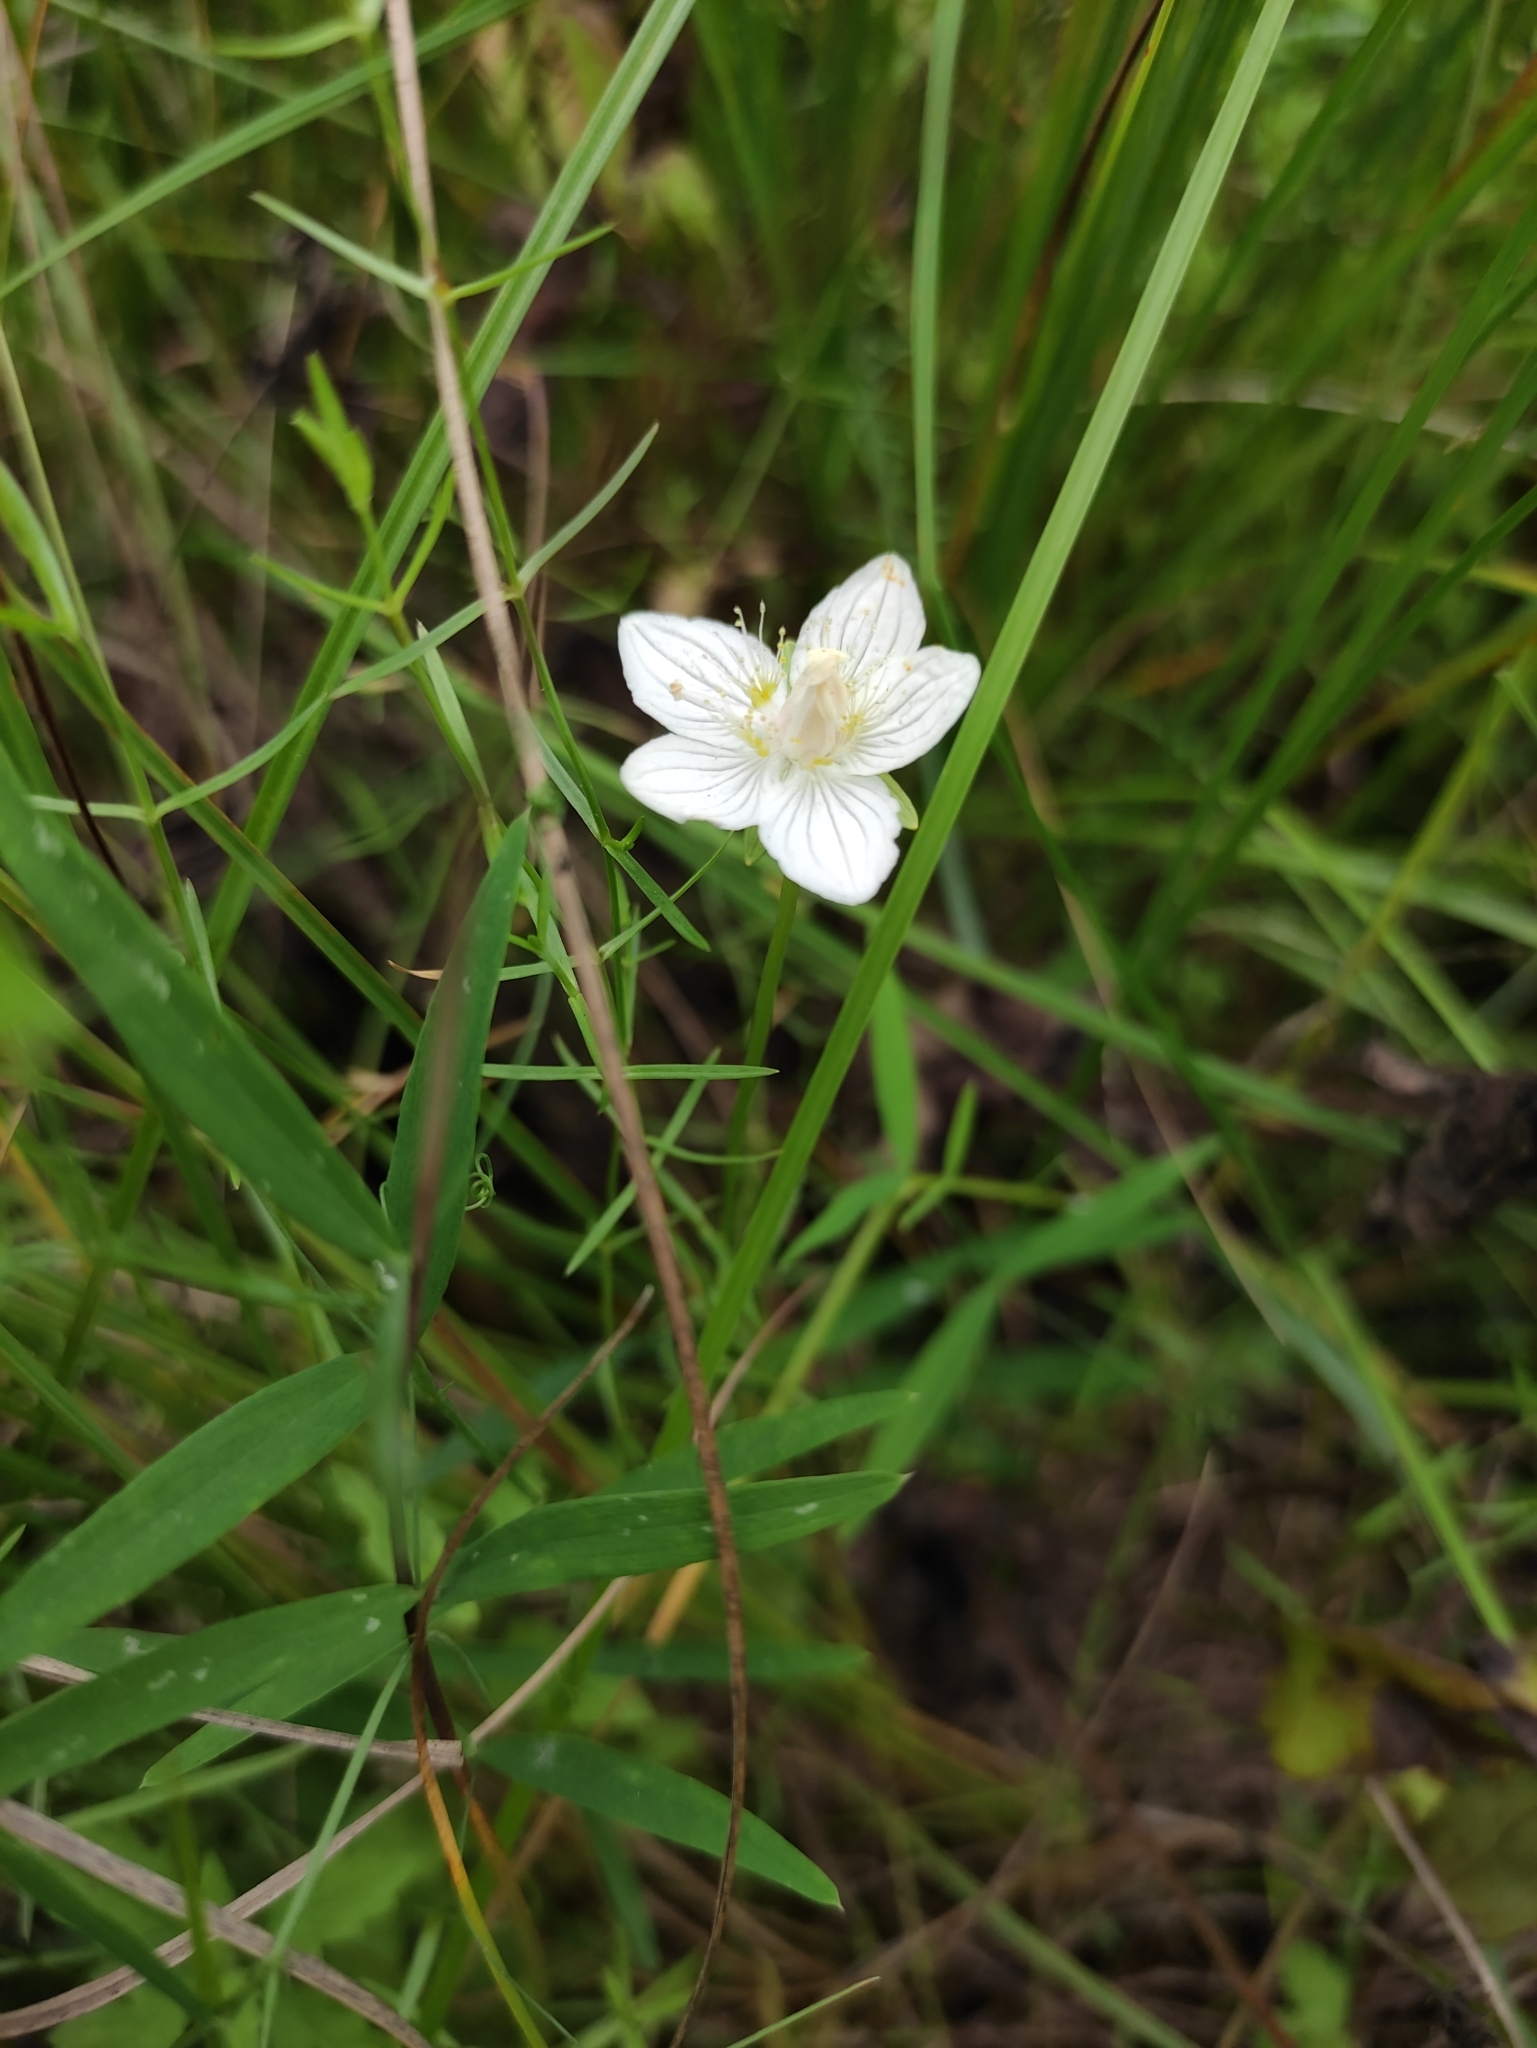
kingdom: Plantae
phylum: Tracheophyta
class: Magnoliopsida
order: Celastrales
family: Parnassiaceae
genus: Parnassia
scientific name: Parnassia palustris
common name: Grass-of-parnassus
